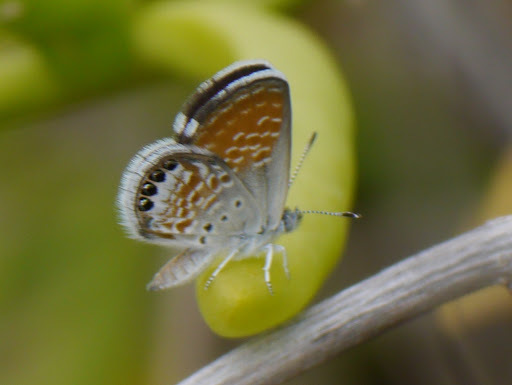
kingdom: Animalia
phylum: Arthropoda
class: Insecta
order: Lepidoptera
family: Lycaenidae
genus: Brephidium
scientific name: Brephidium exilis
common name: Pygmy blue
